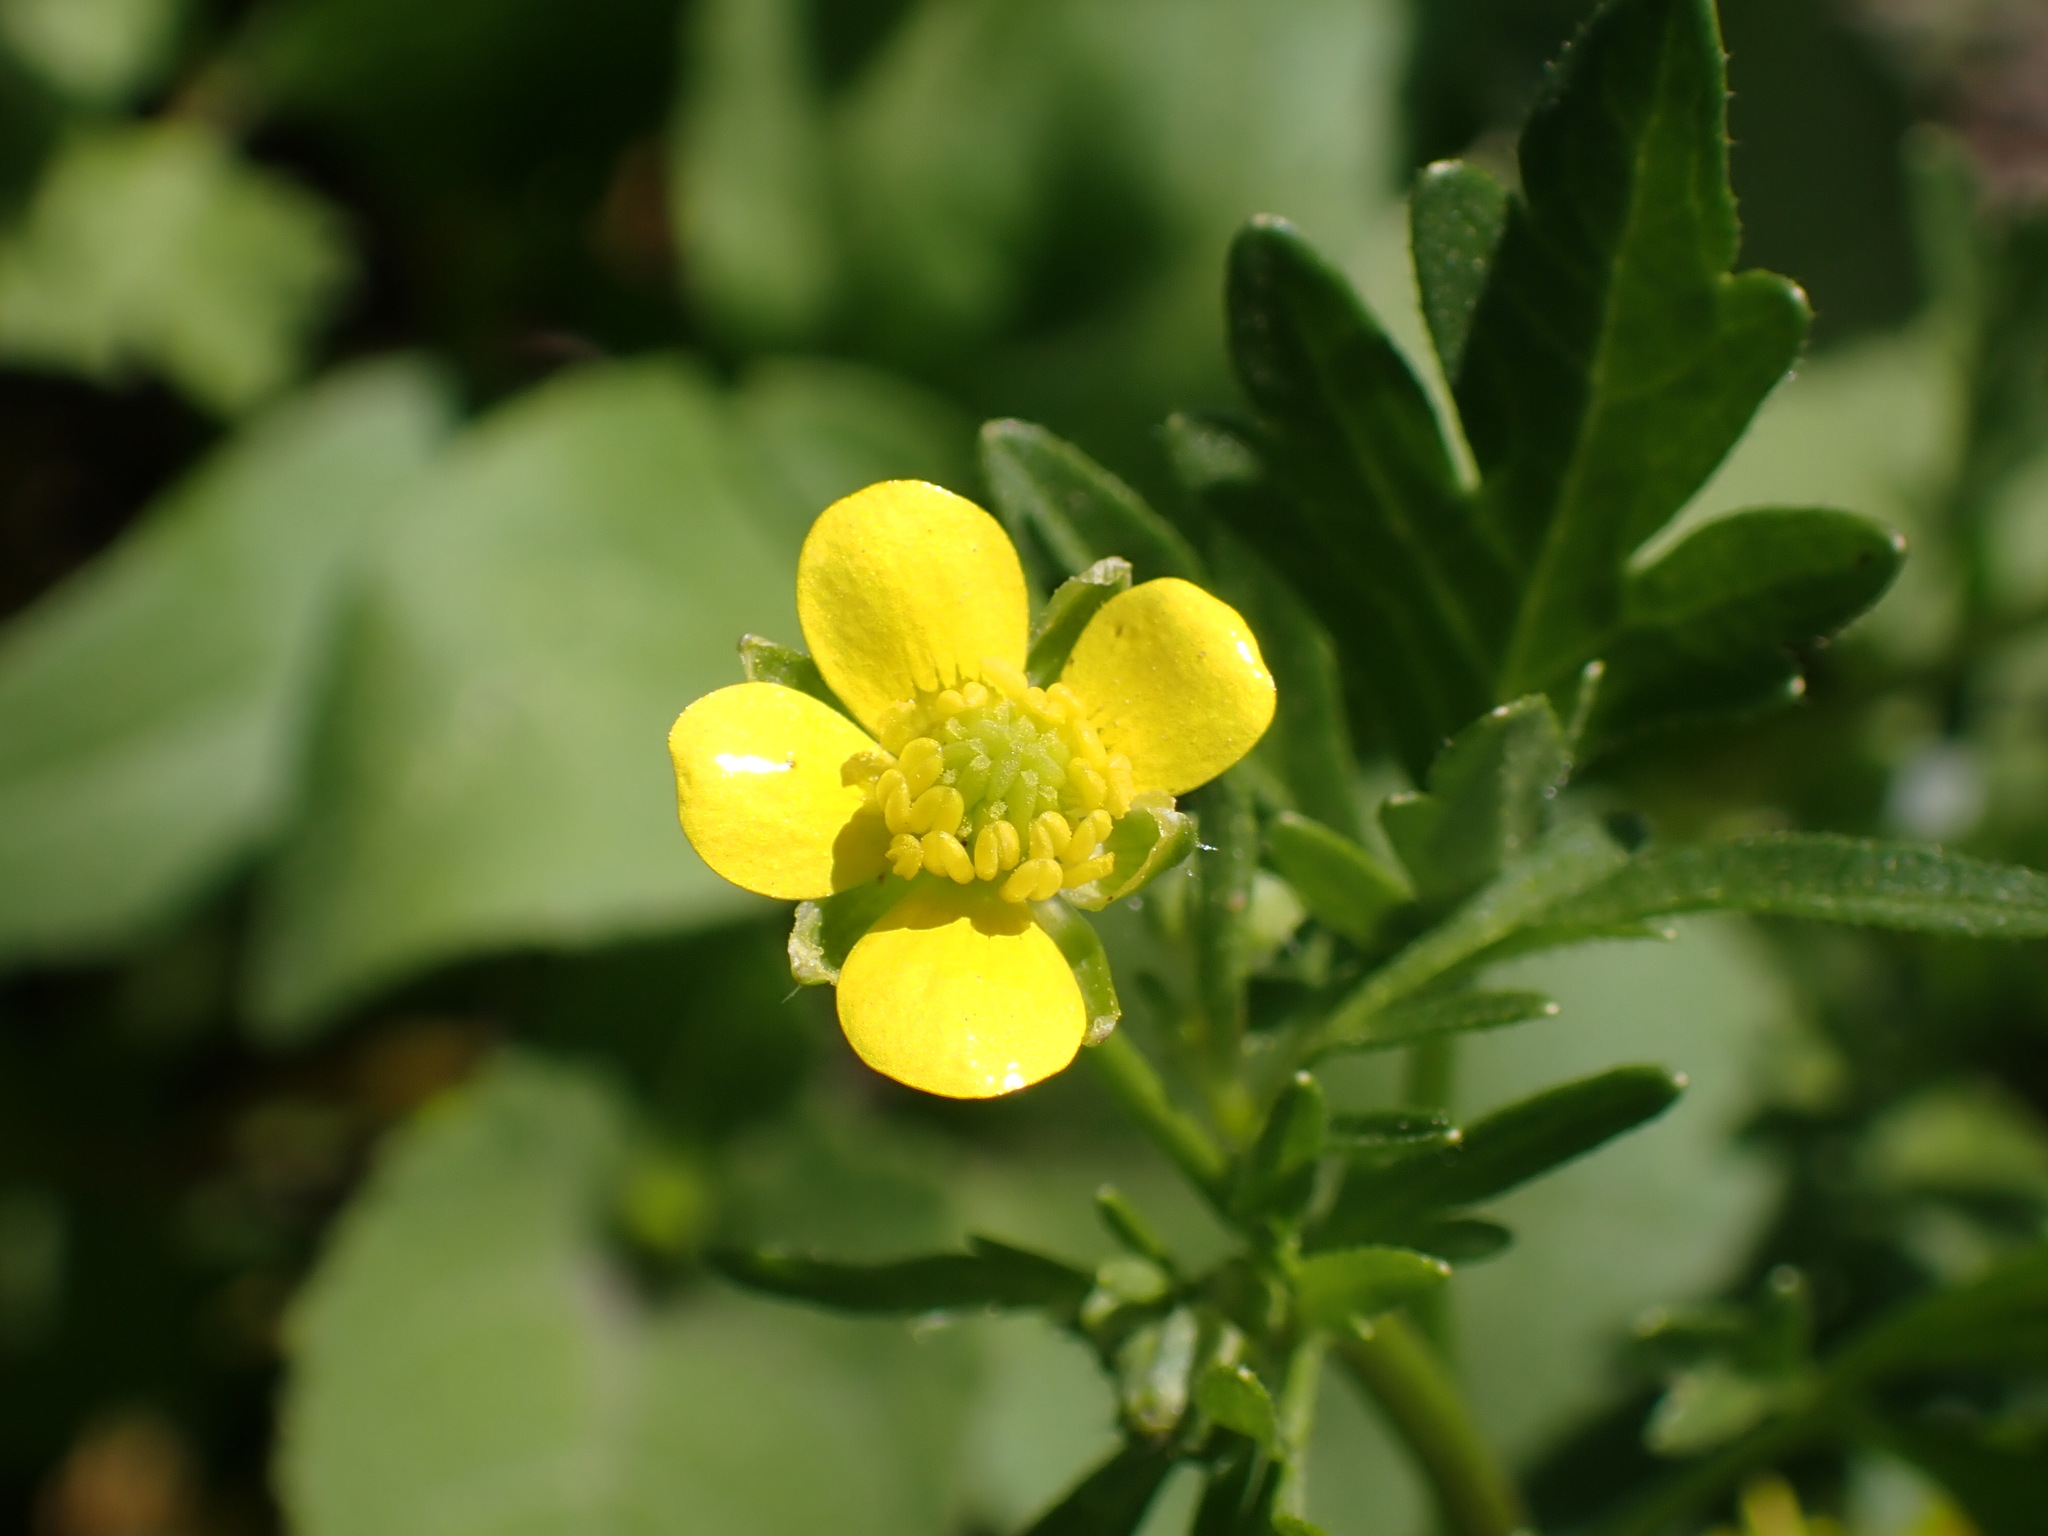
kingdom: Plantae
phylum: Tracheophyta
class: Magnoliopsida
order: Ranunculales
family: Ranunculaceae
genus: Ranunculus
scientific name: Ranunculus muricatus
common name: Rough-fruited buttercup
